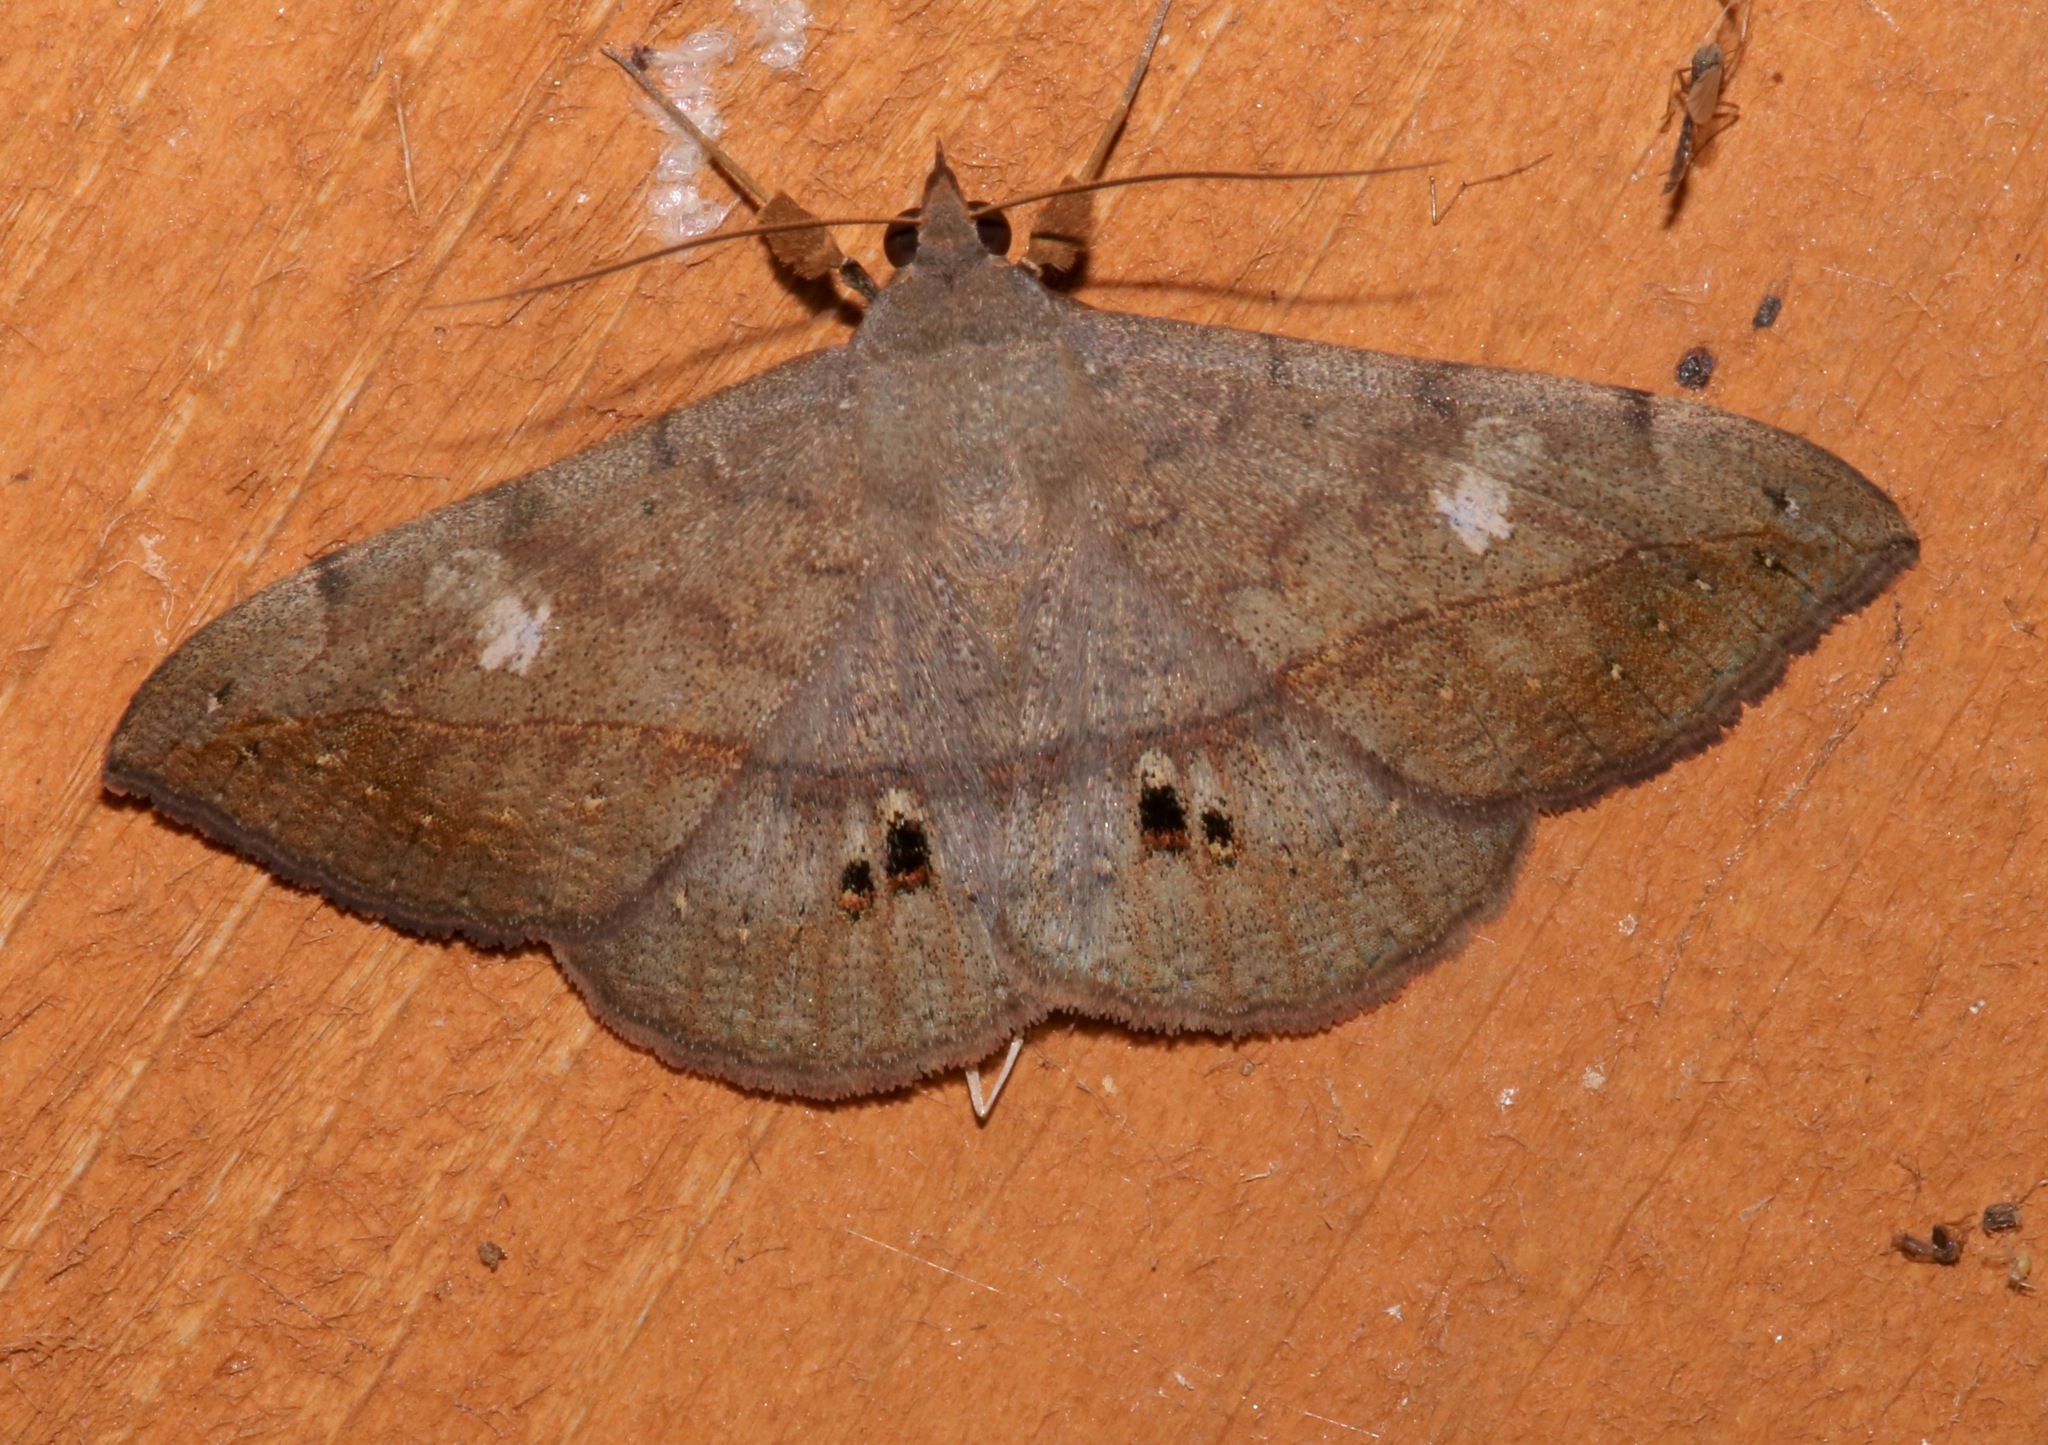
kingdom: Animalia
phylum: Arthropoda
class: Insecta
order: Lepidoptera
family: Erebidae
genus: Anticarsia
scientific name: Anticarsia gemmatalis
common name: Cutworm moth
